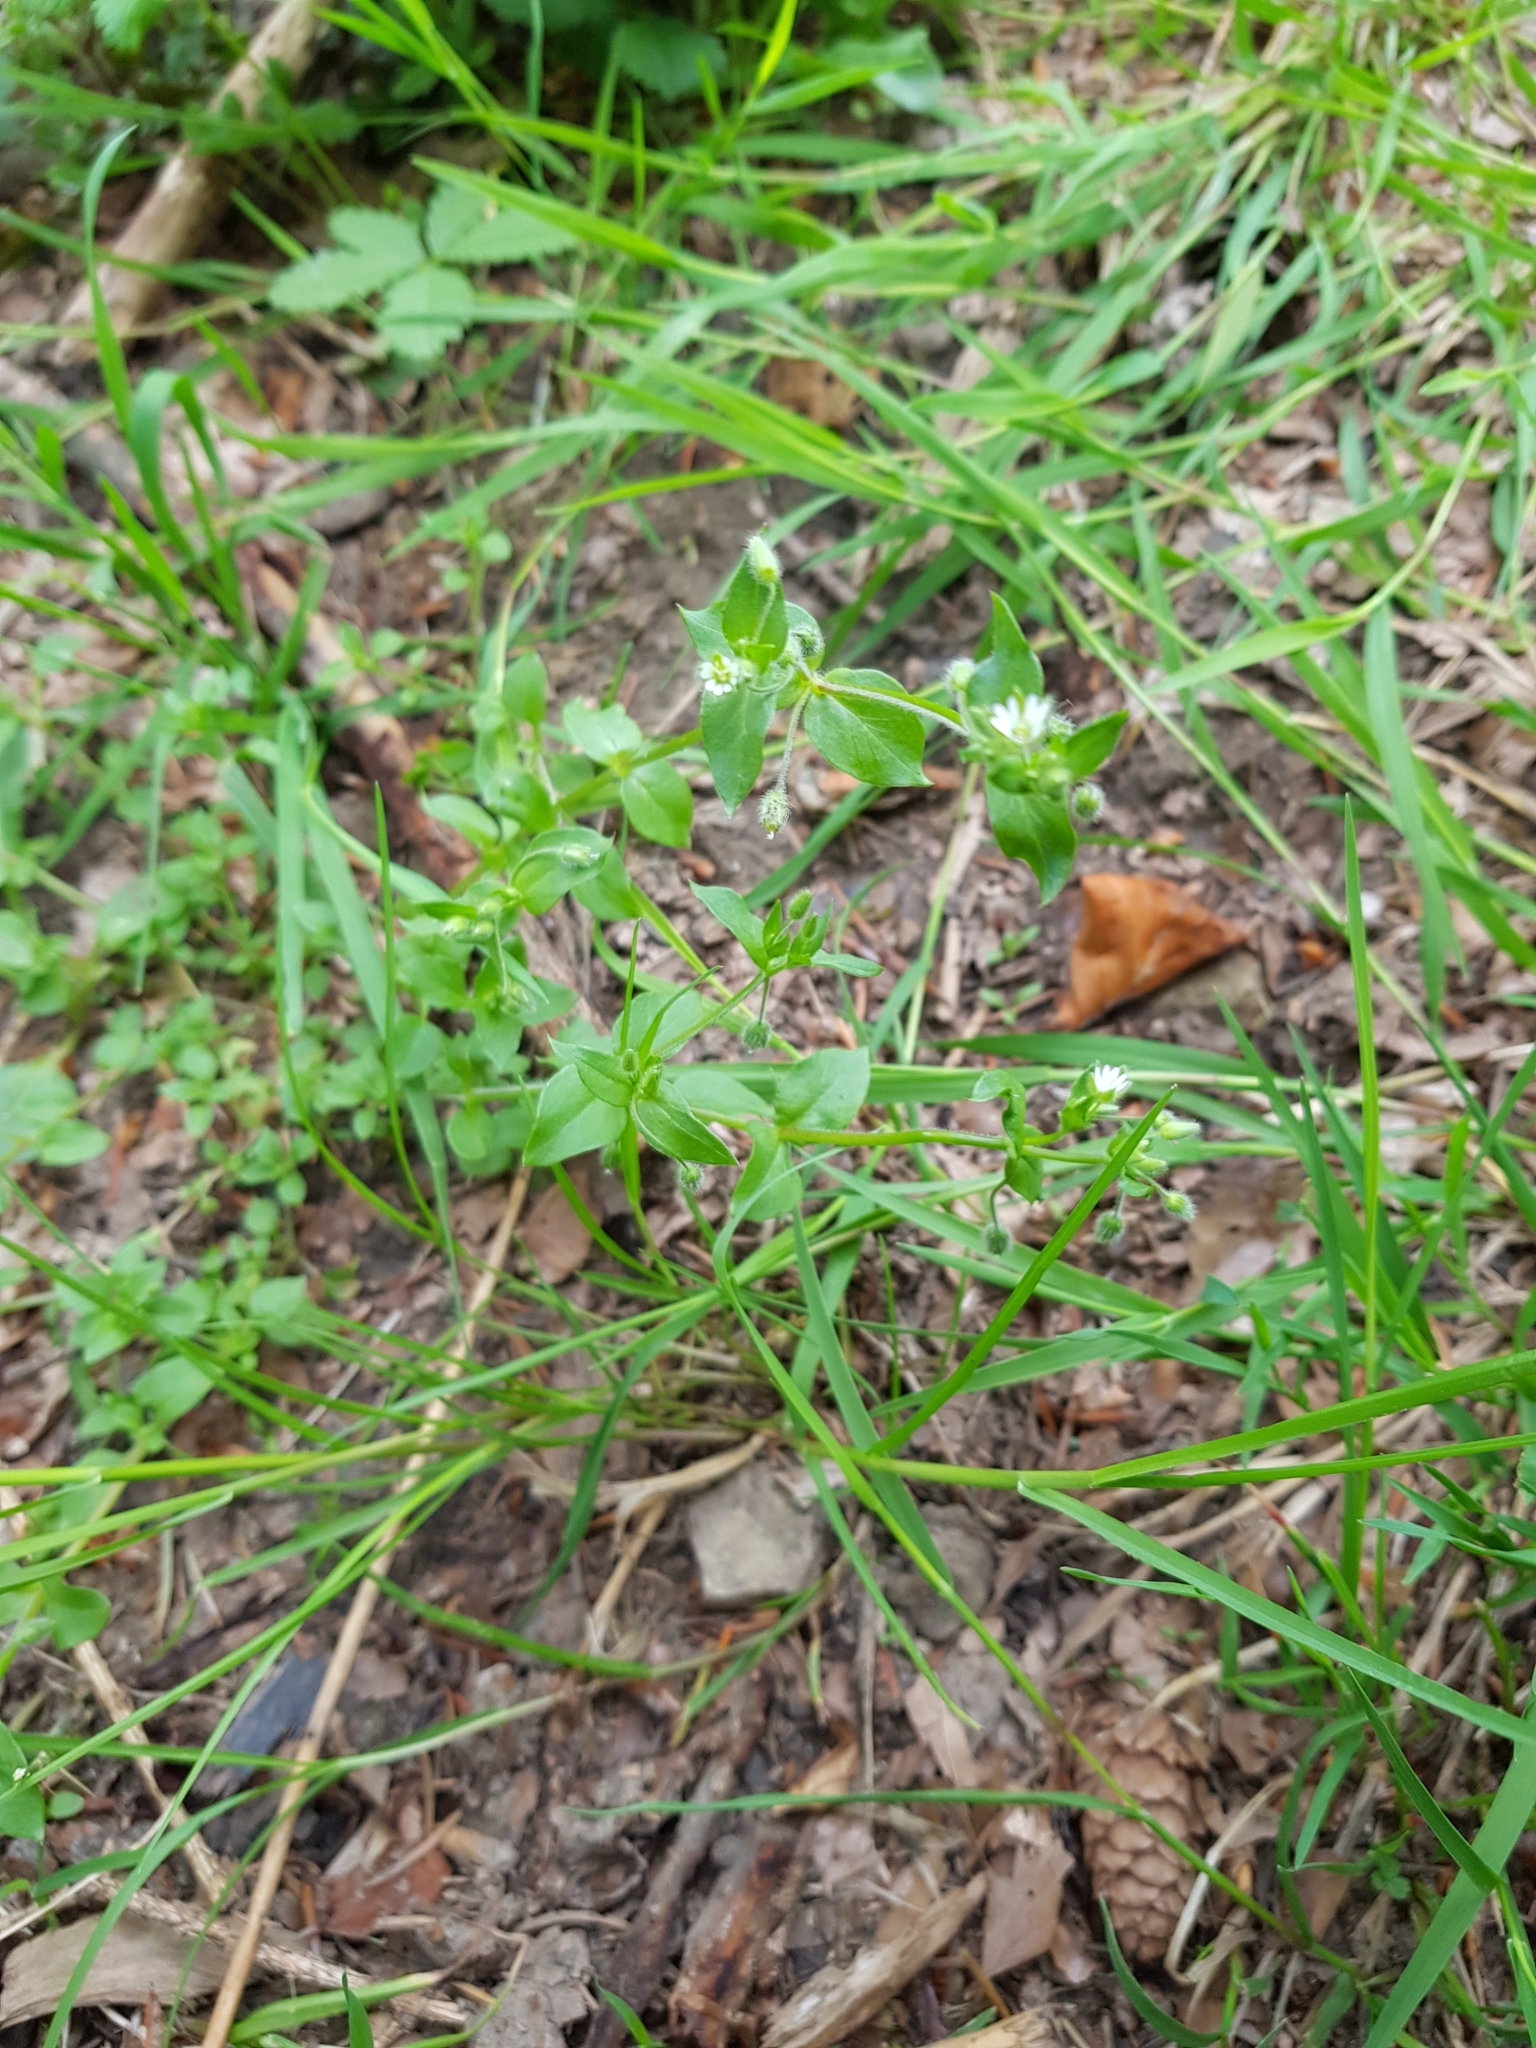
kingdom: Plantae
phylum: Tracheophyta
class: Magnoliopsida
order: Caryophyllales
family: Caryophyllaceae
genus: Stellaria
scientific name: Stellaria media
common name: Common chickweed
